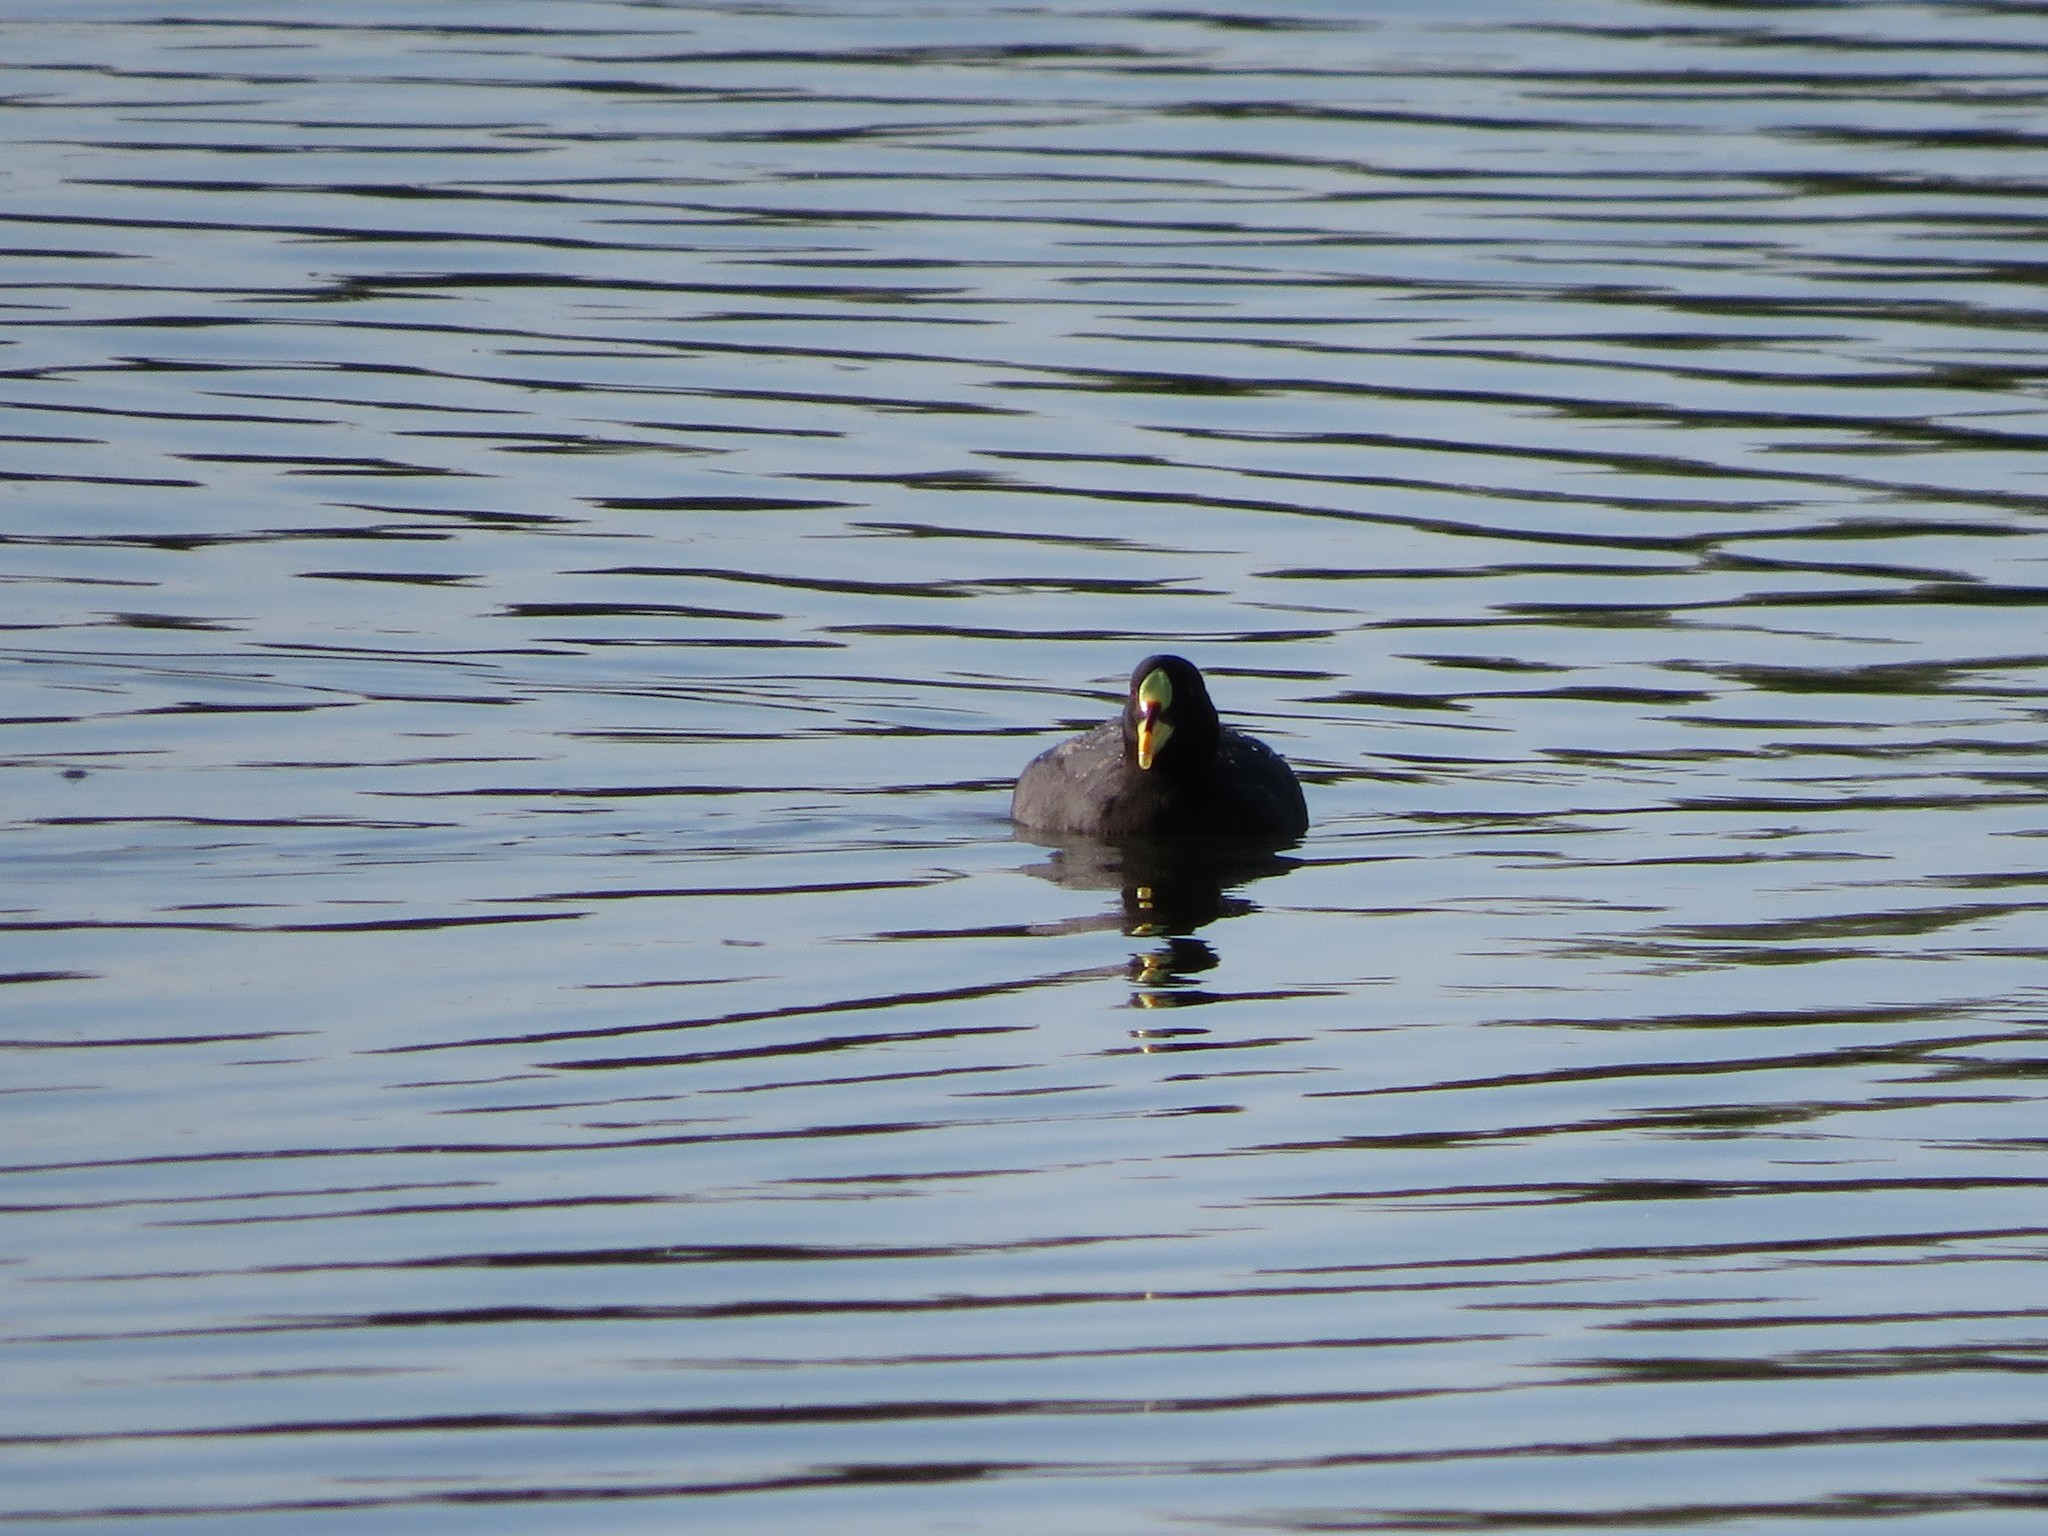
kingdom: Animalia
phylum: Chordata
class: Aves
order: Gruiformes
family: Rallidae
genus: Fulica
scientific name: Fulica armillata
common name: Red-gartered coot
